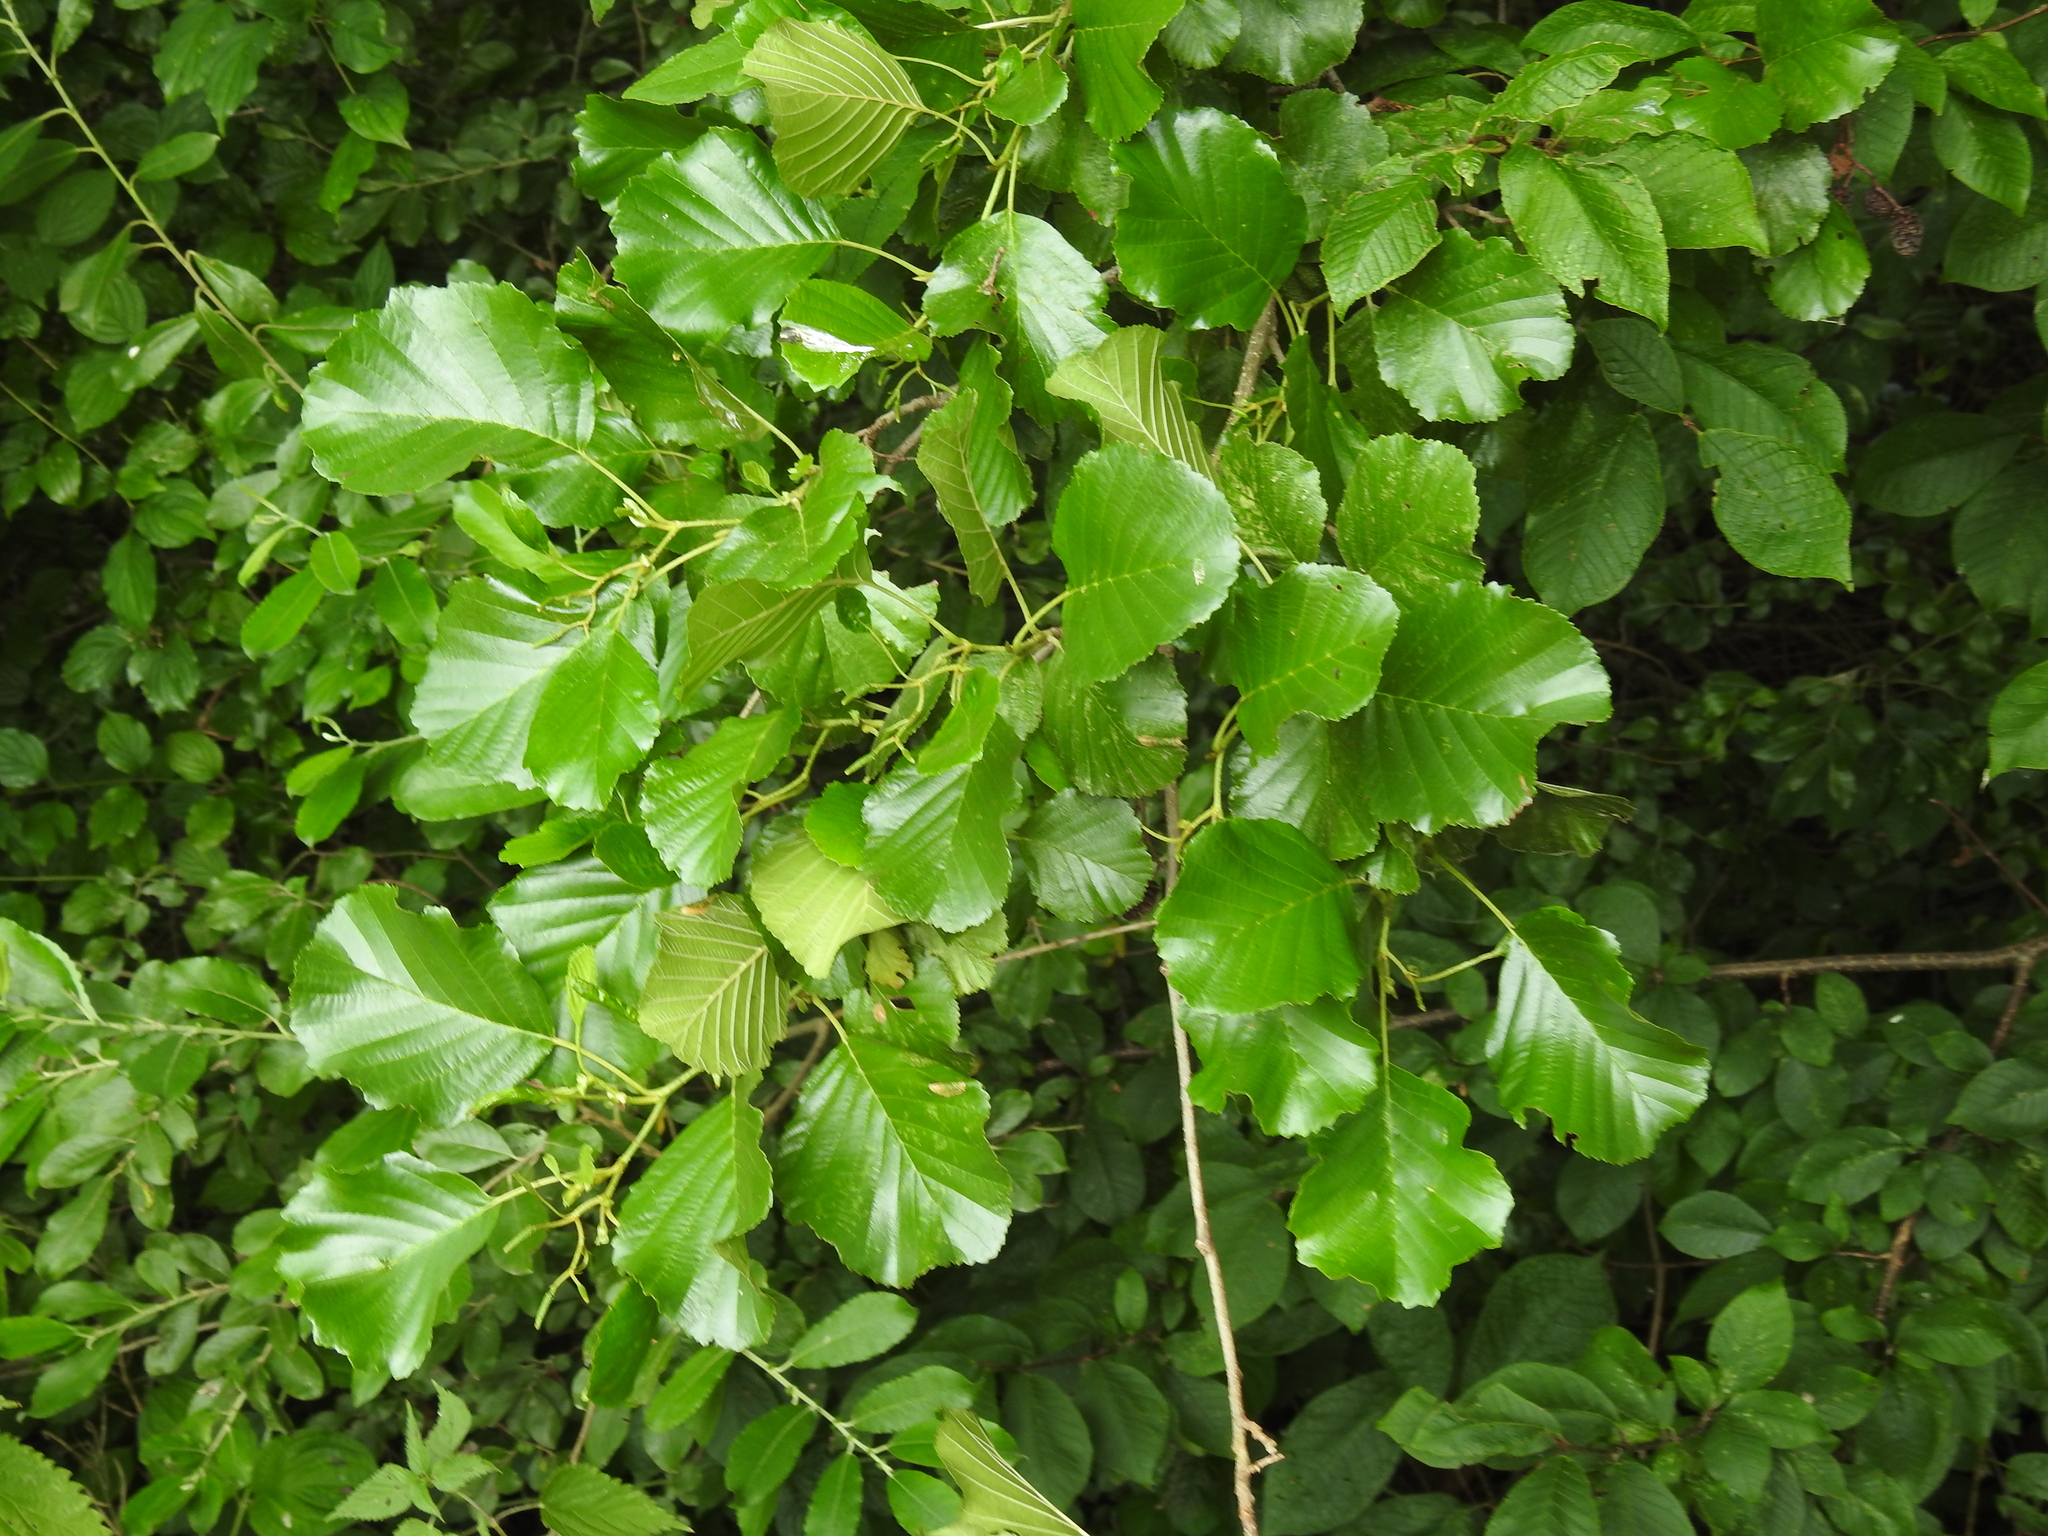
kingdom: Plantae
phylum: Tracheophyta
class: Magnoliopsida
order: Fagales
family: Betulaceae
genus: Alnus
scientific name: Alnus glutinosa
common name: Black alder
